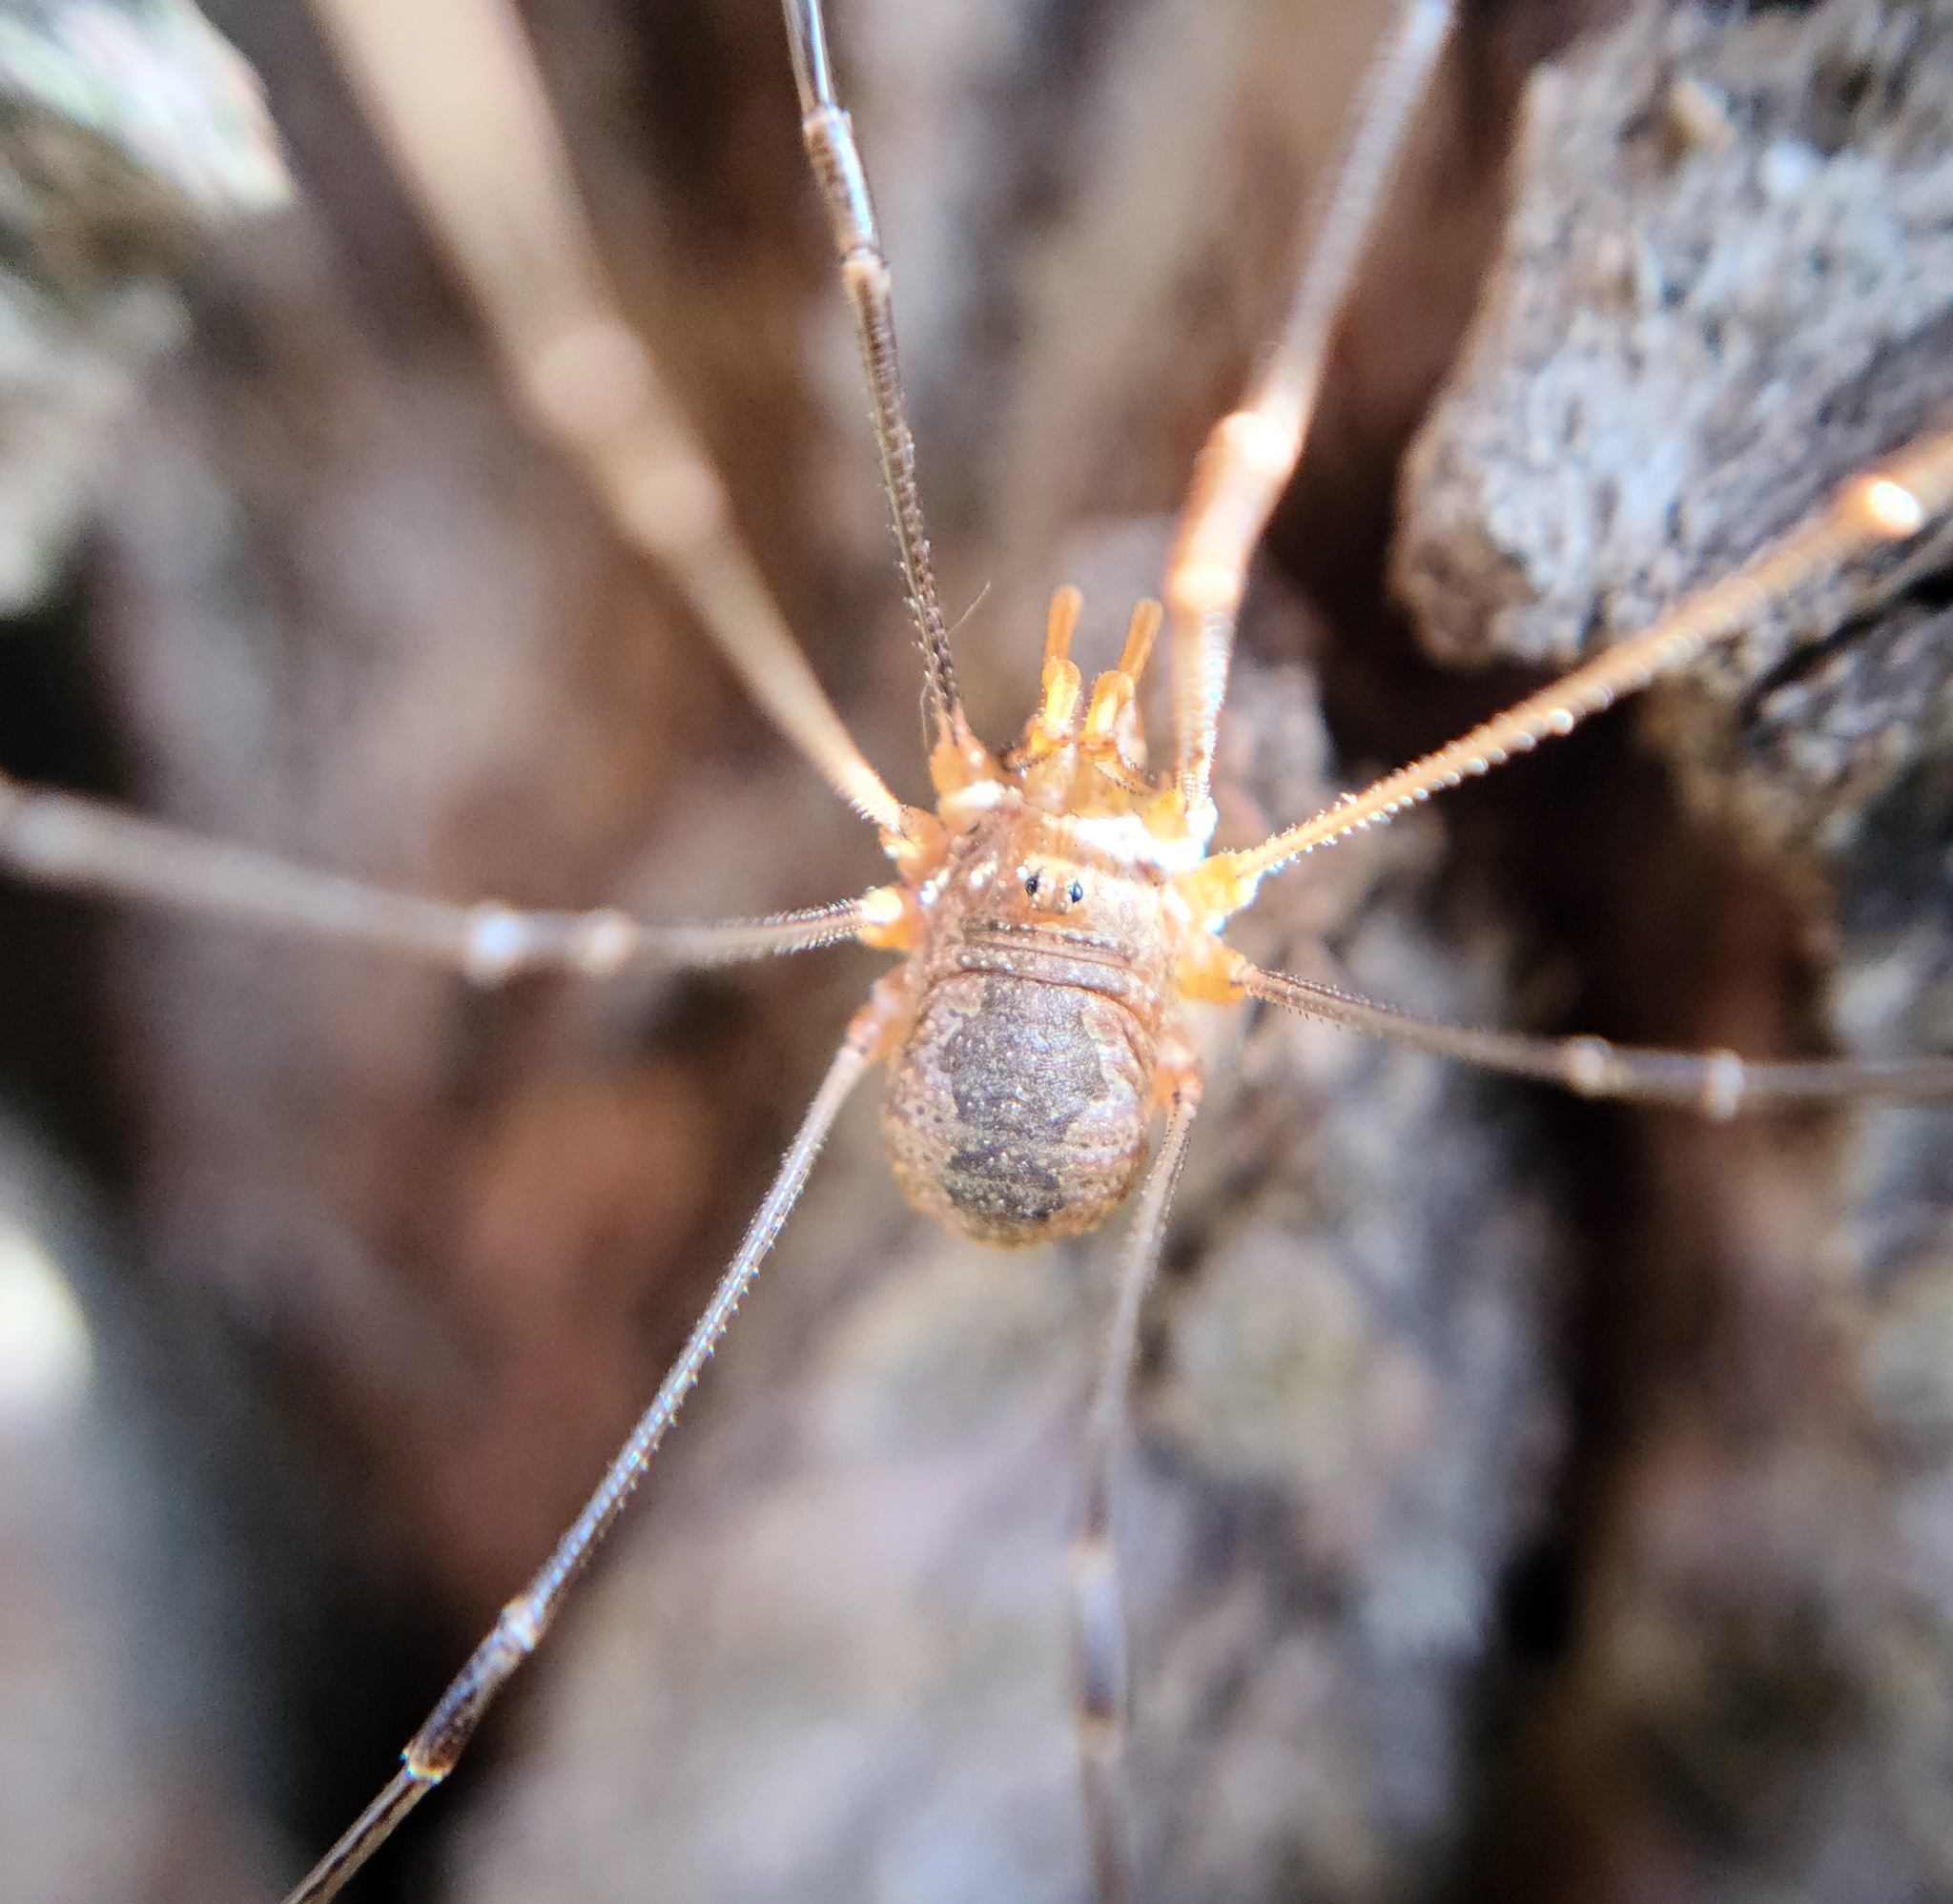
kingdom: Animalia
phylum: Arthropoda
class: Arachnida
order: Opiliones
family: Phalangiidae
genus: Phalangium
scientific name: Phalangium opilio
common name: Daddy longleg
